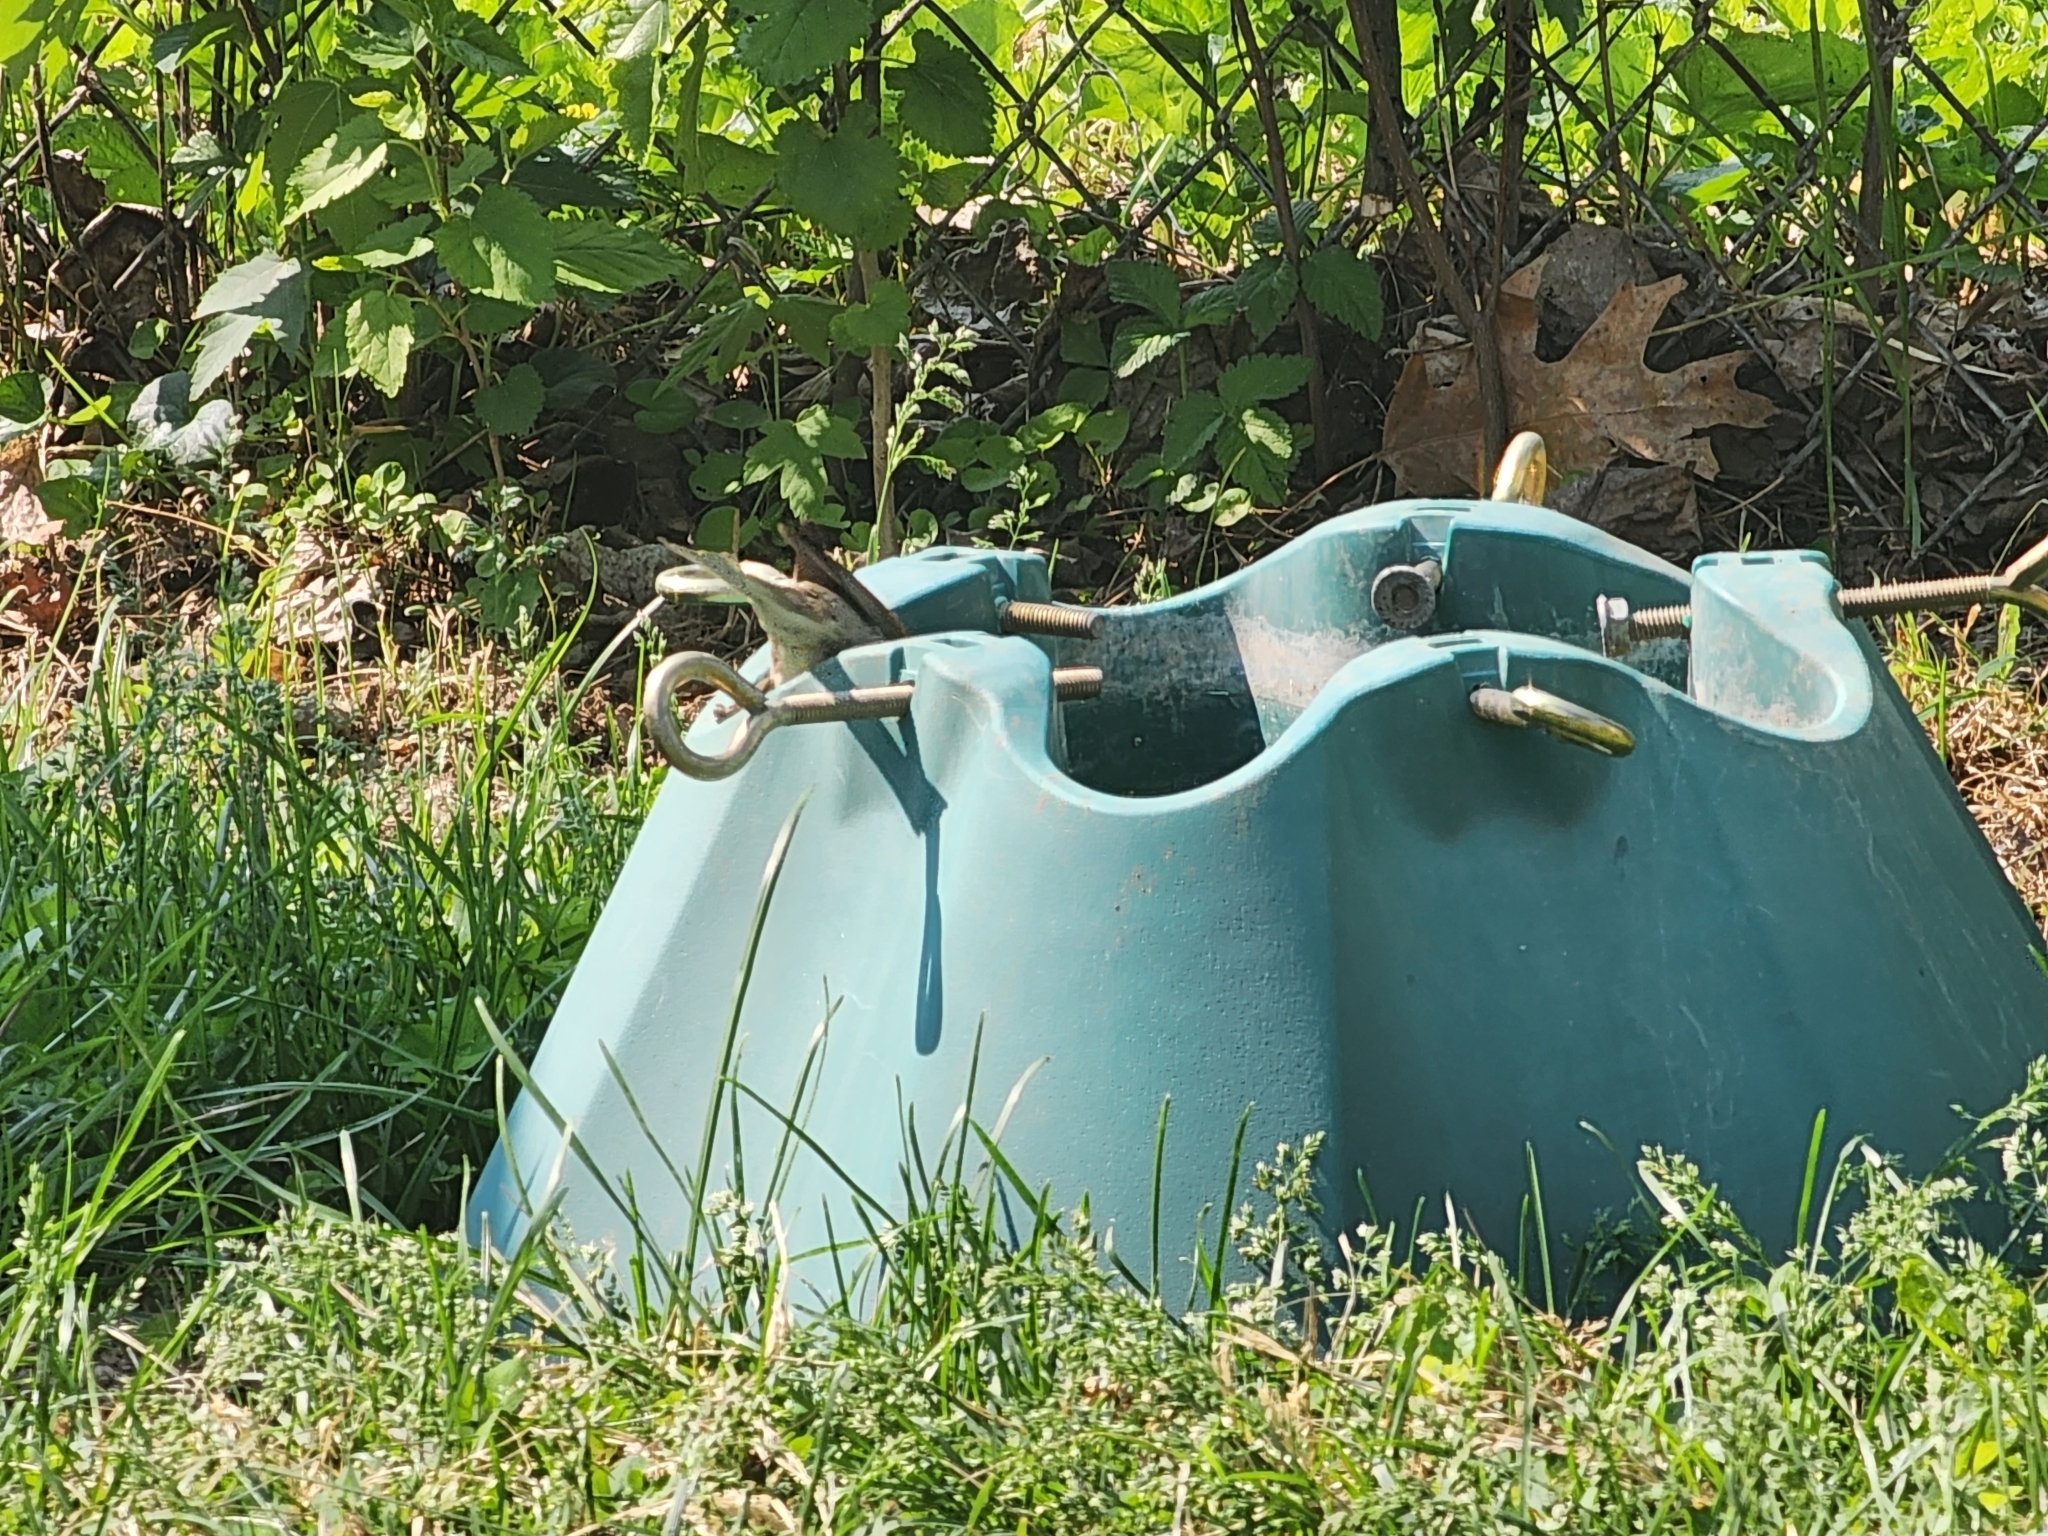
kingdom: Animalia
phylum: Chordata
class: Aves
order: Passeriformes
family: Passeridae
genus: Passer
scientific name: Passer domesticus
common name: House sparrow
